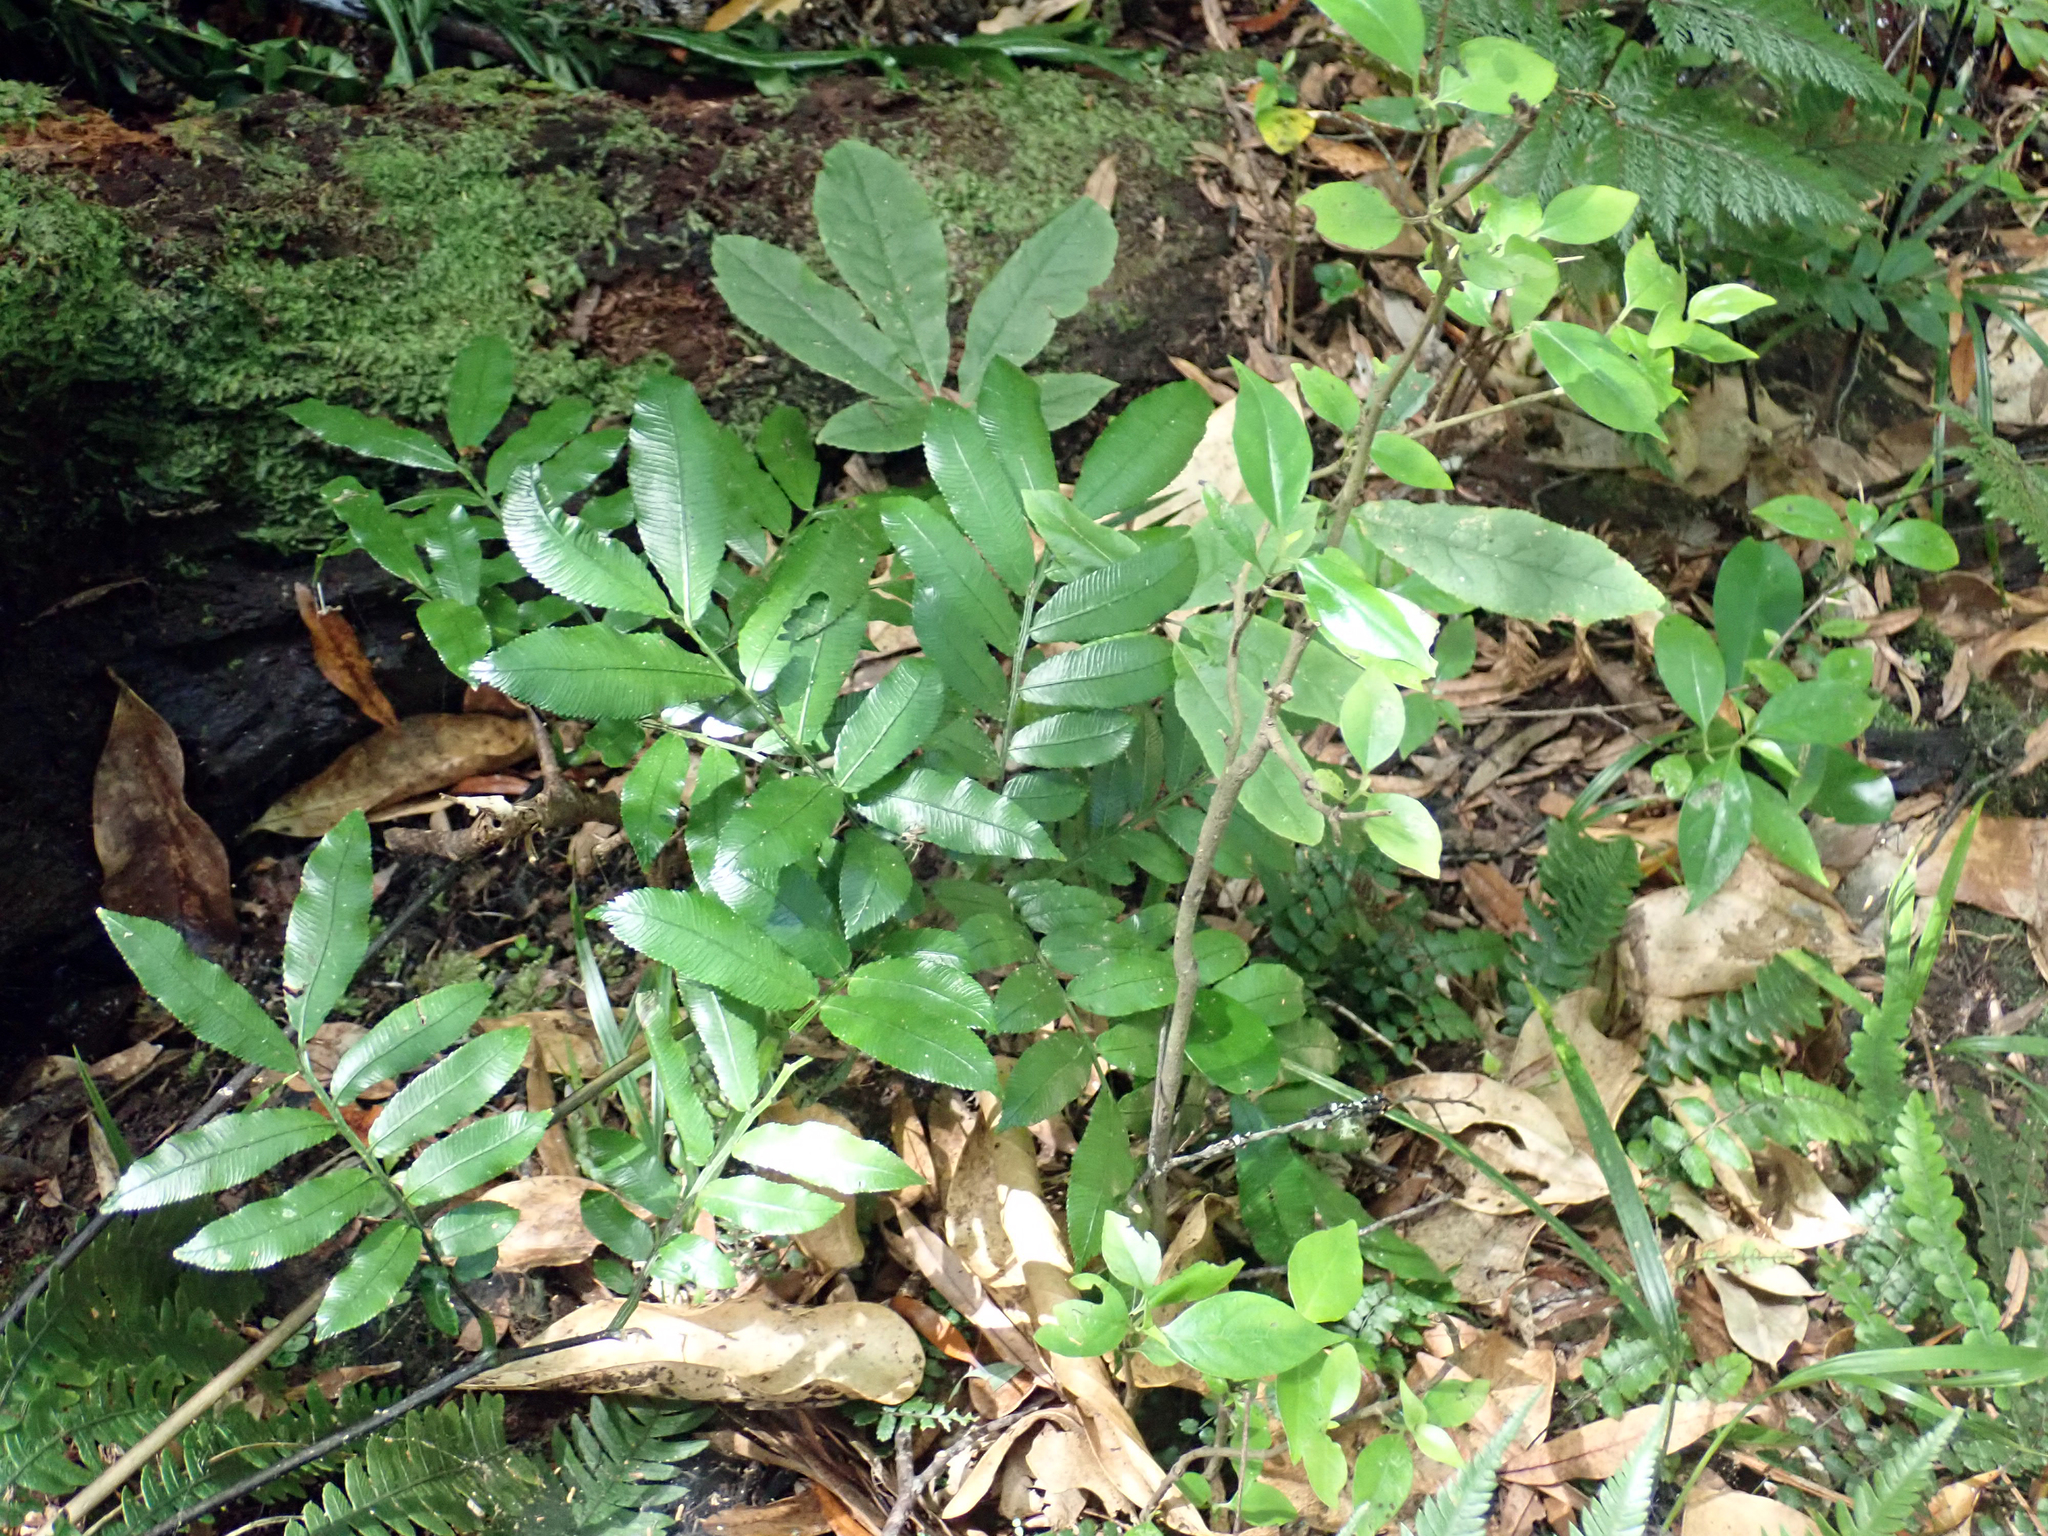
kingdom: Plantae
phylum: Tracheophyta
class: Polypodiopsida
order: Marattiales
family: Marattiaceae
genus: Ptisana
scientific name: Ptisana salicina
